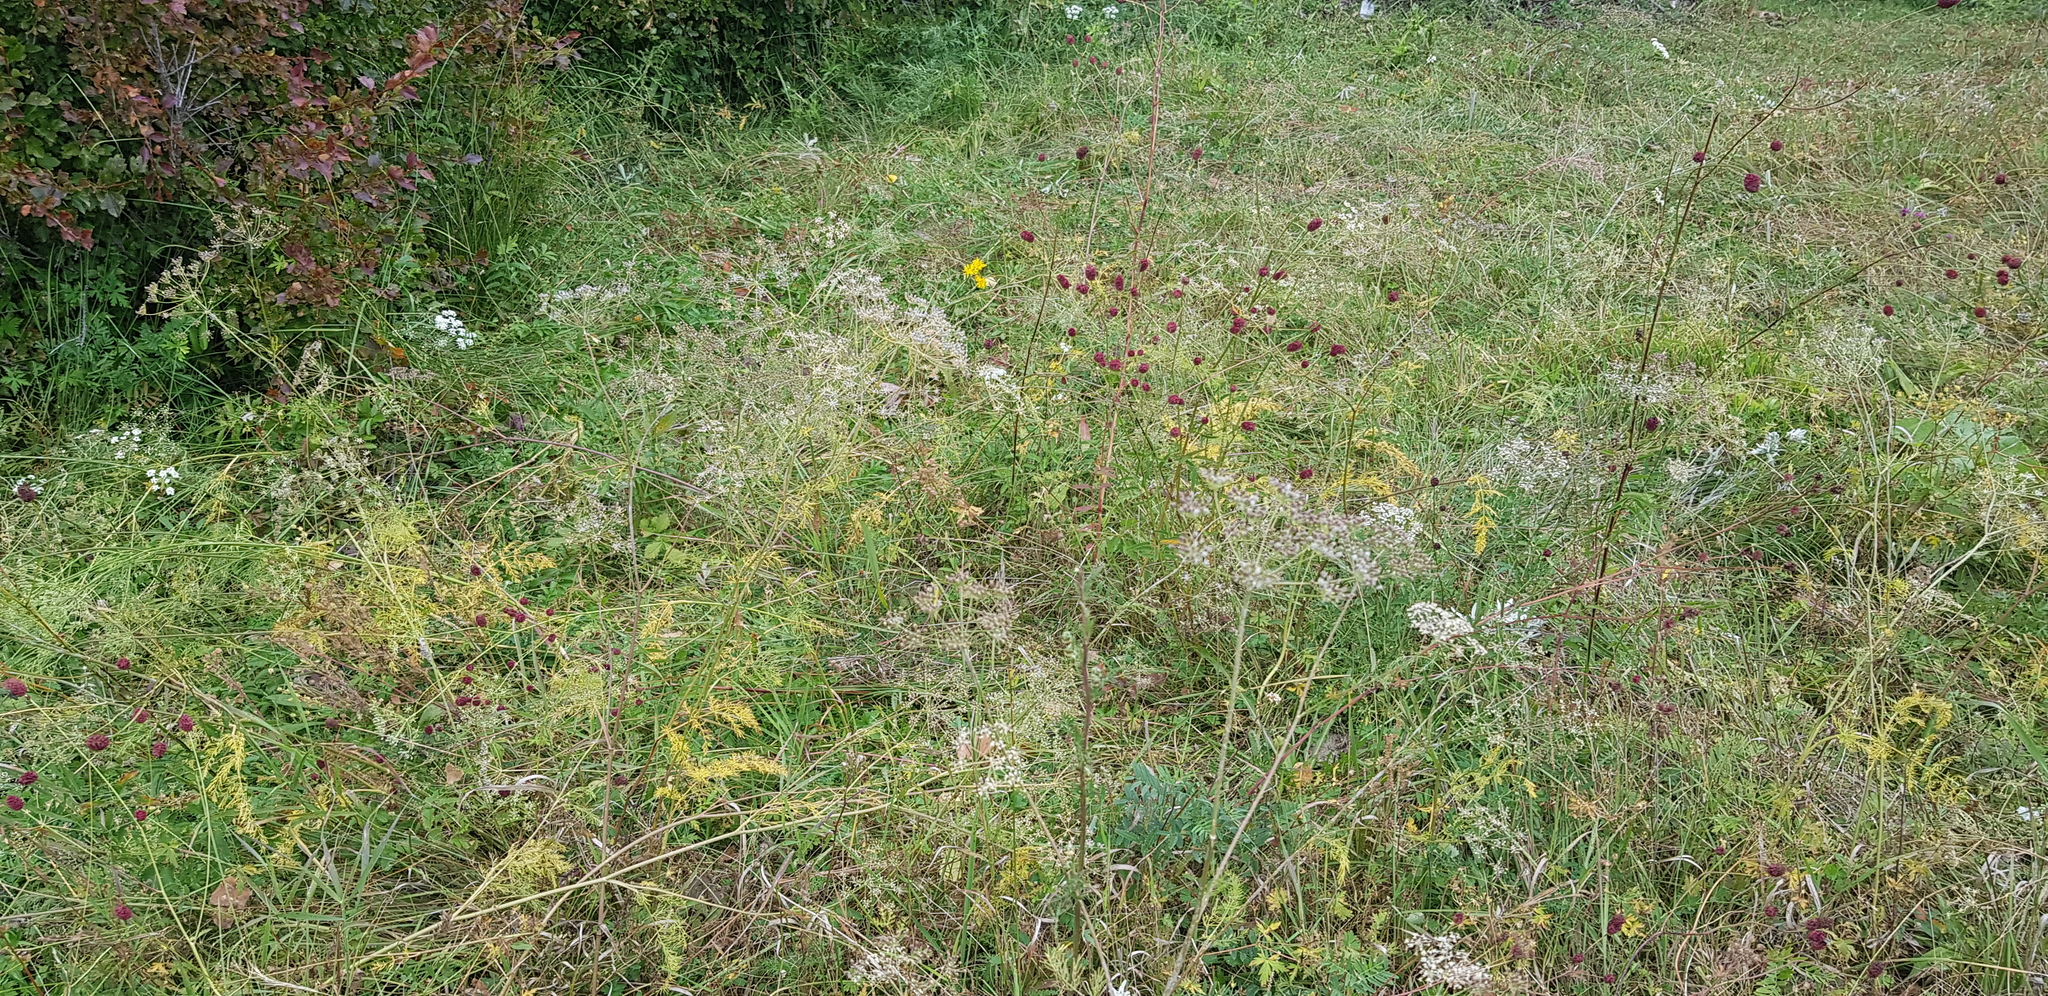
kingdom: Plantae
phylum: Tracheophyta
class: Magnoliopsida
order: Apiales
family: Apiaceae
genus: Carum
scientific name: Carum buriaticum
